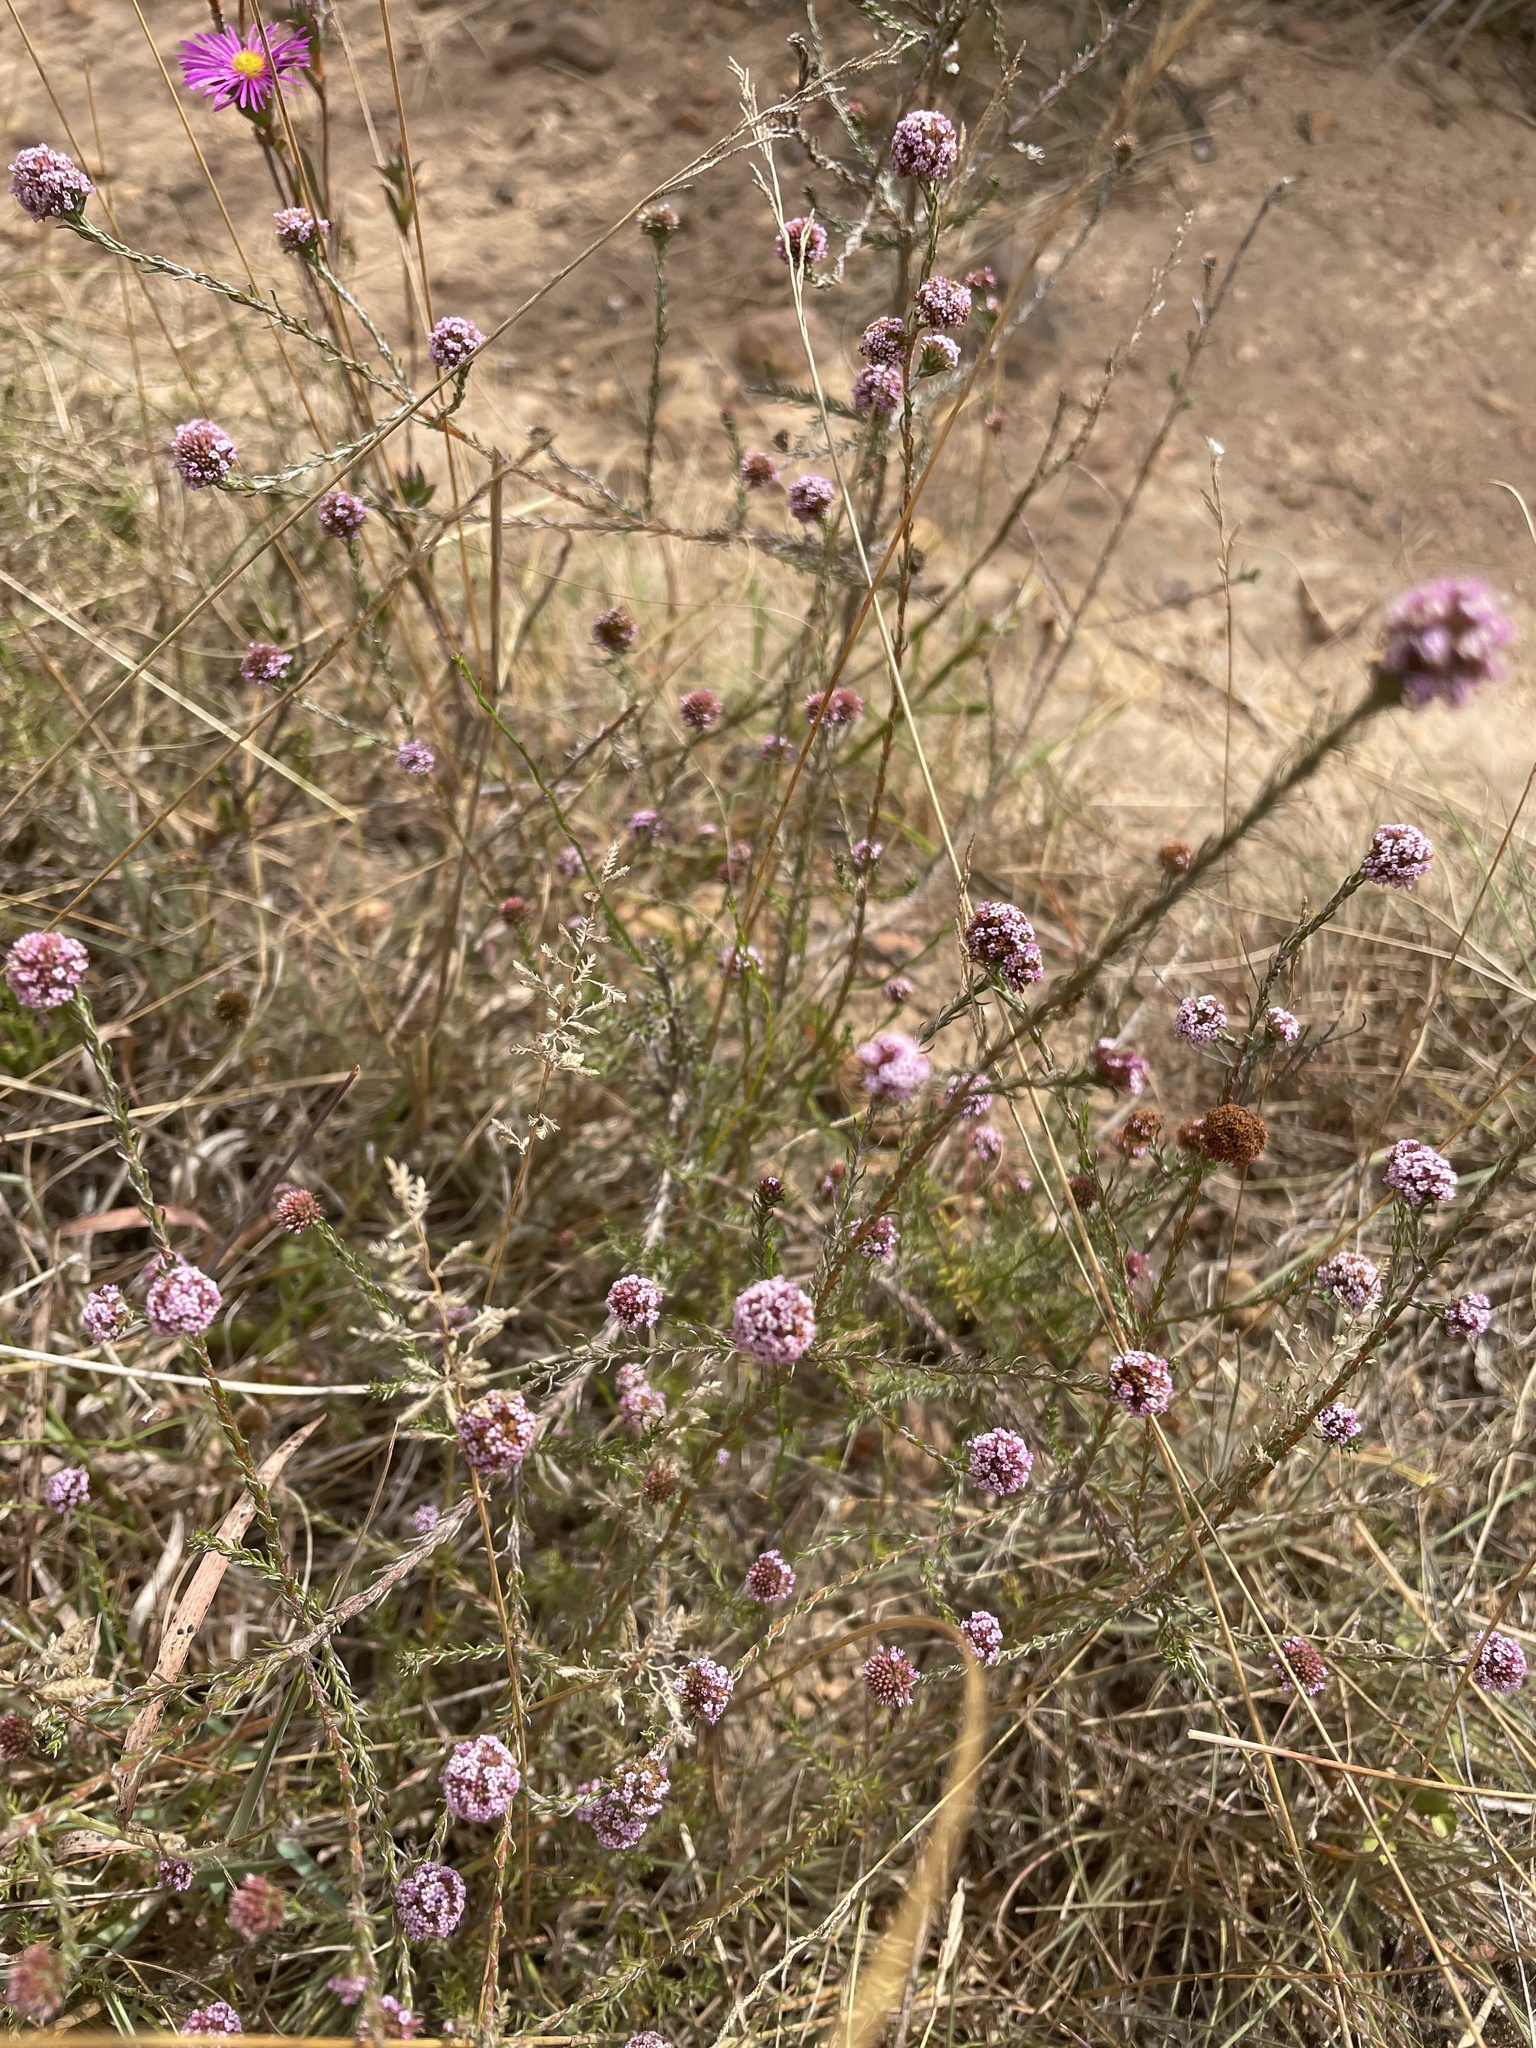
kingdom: Plantae
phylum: Tracheophyta
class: Magnoliopsida
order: Asterales
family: Asteraceae
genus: Stoebe
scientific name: Stoebe capitata
